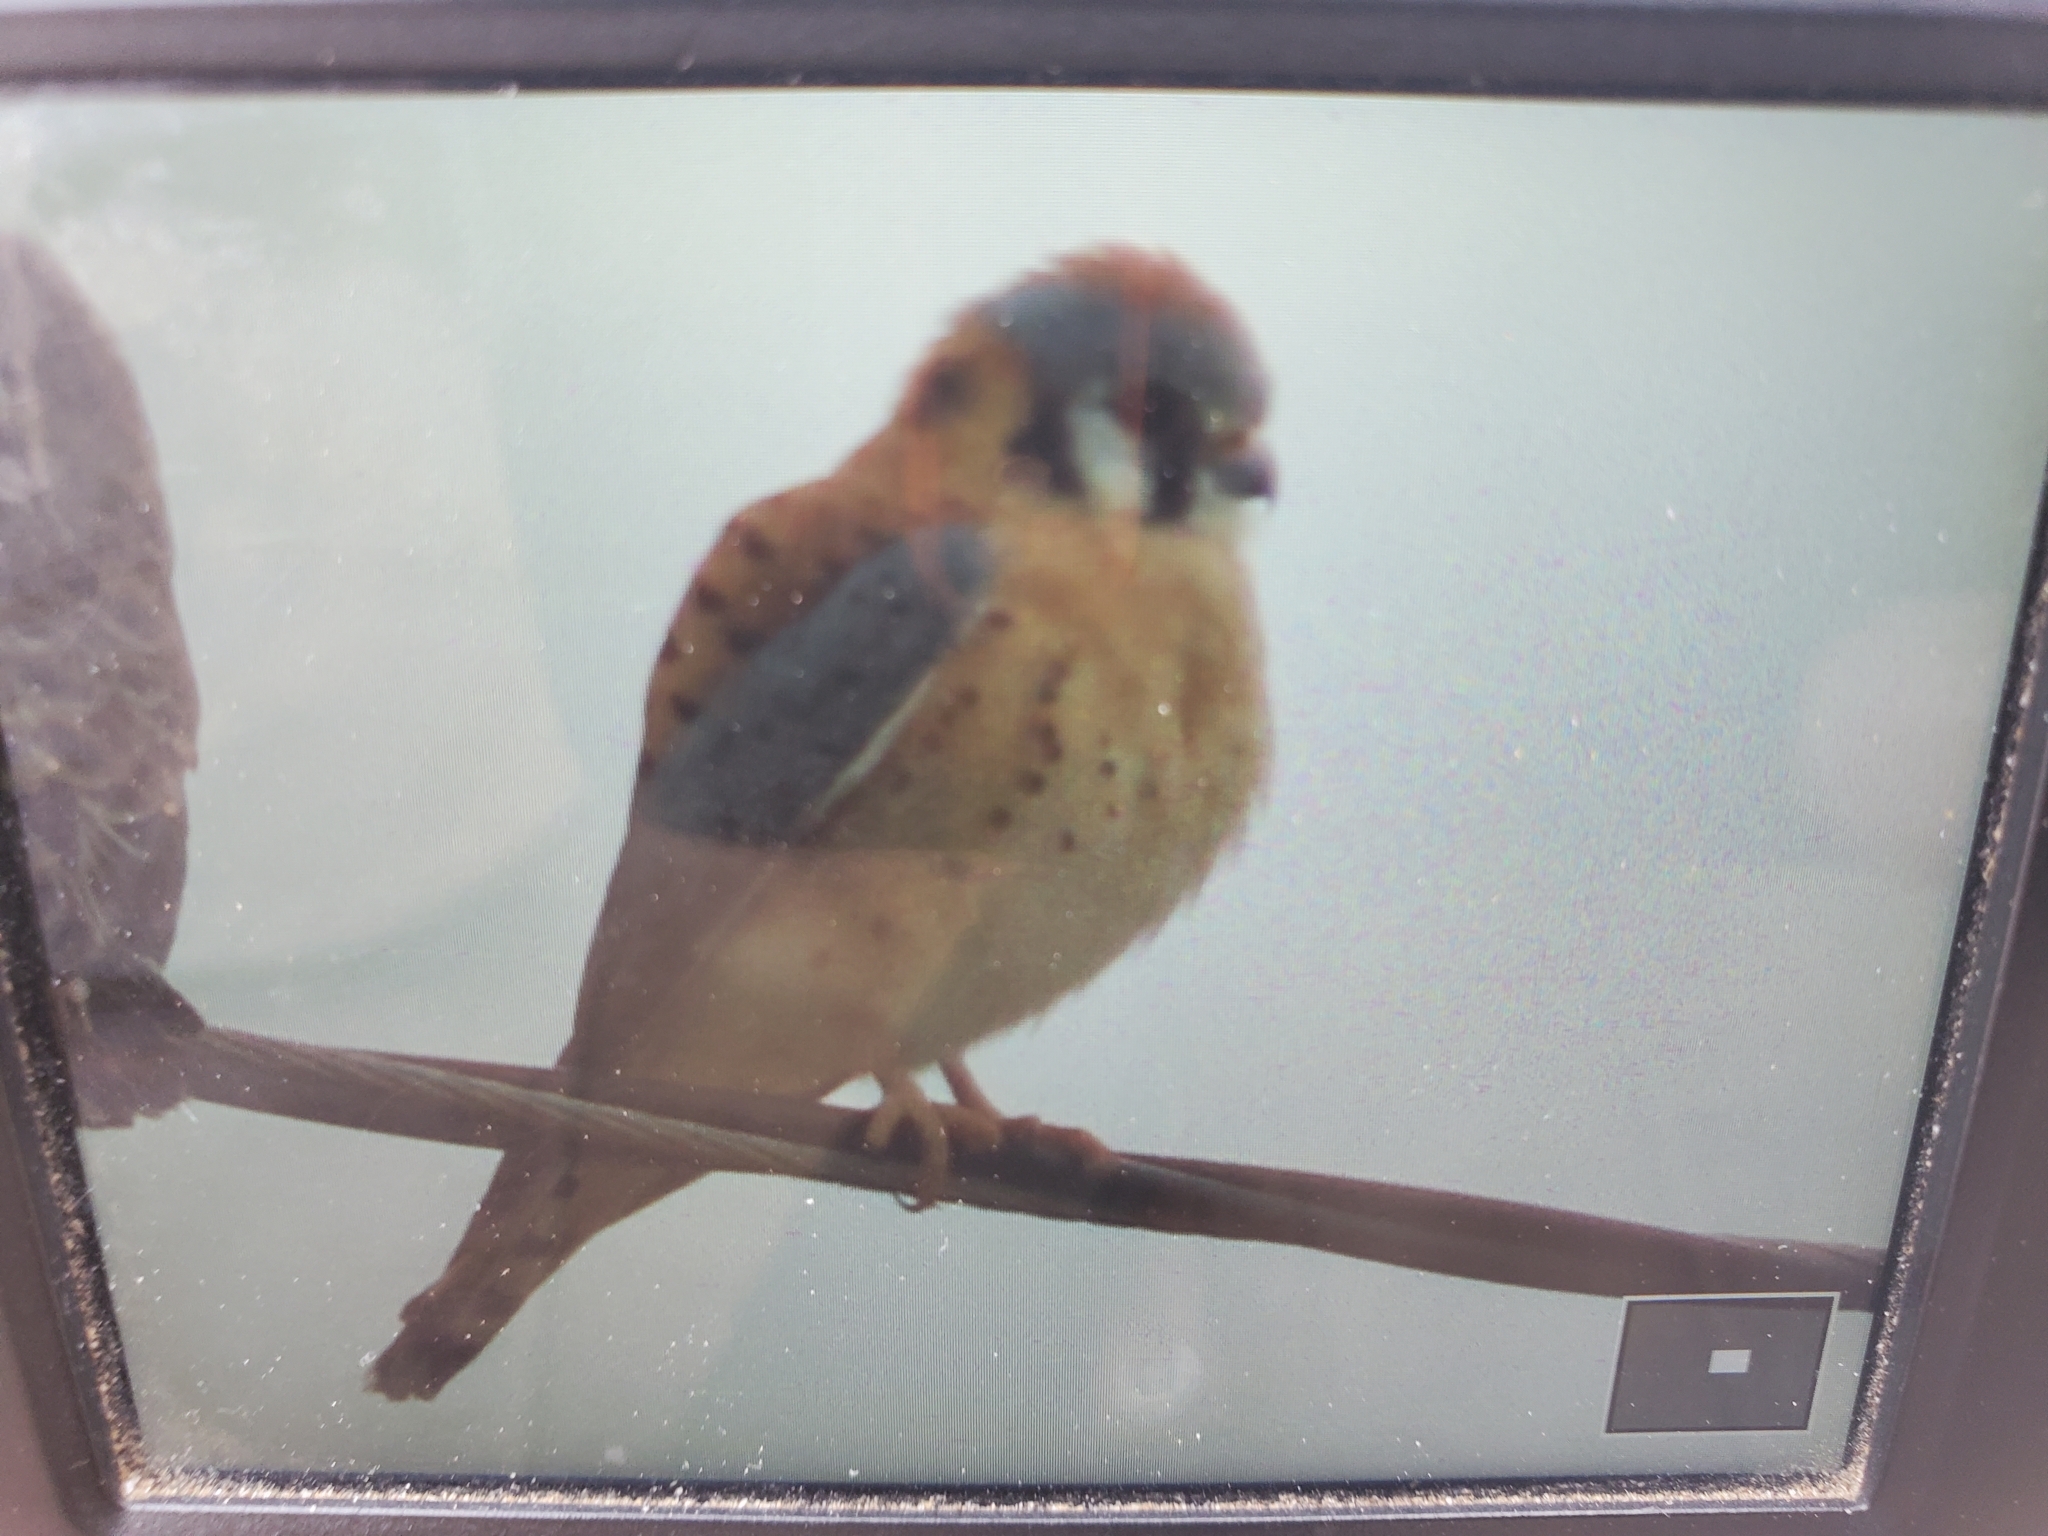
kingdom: Animalia
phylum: Chordata
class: Aves
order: Falconiformes
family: Falconidae
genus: Falco
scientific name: Falco sparverius
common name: American kestrel
